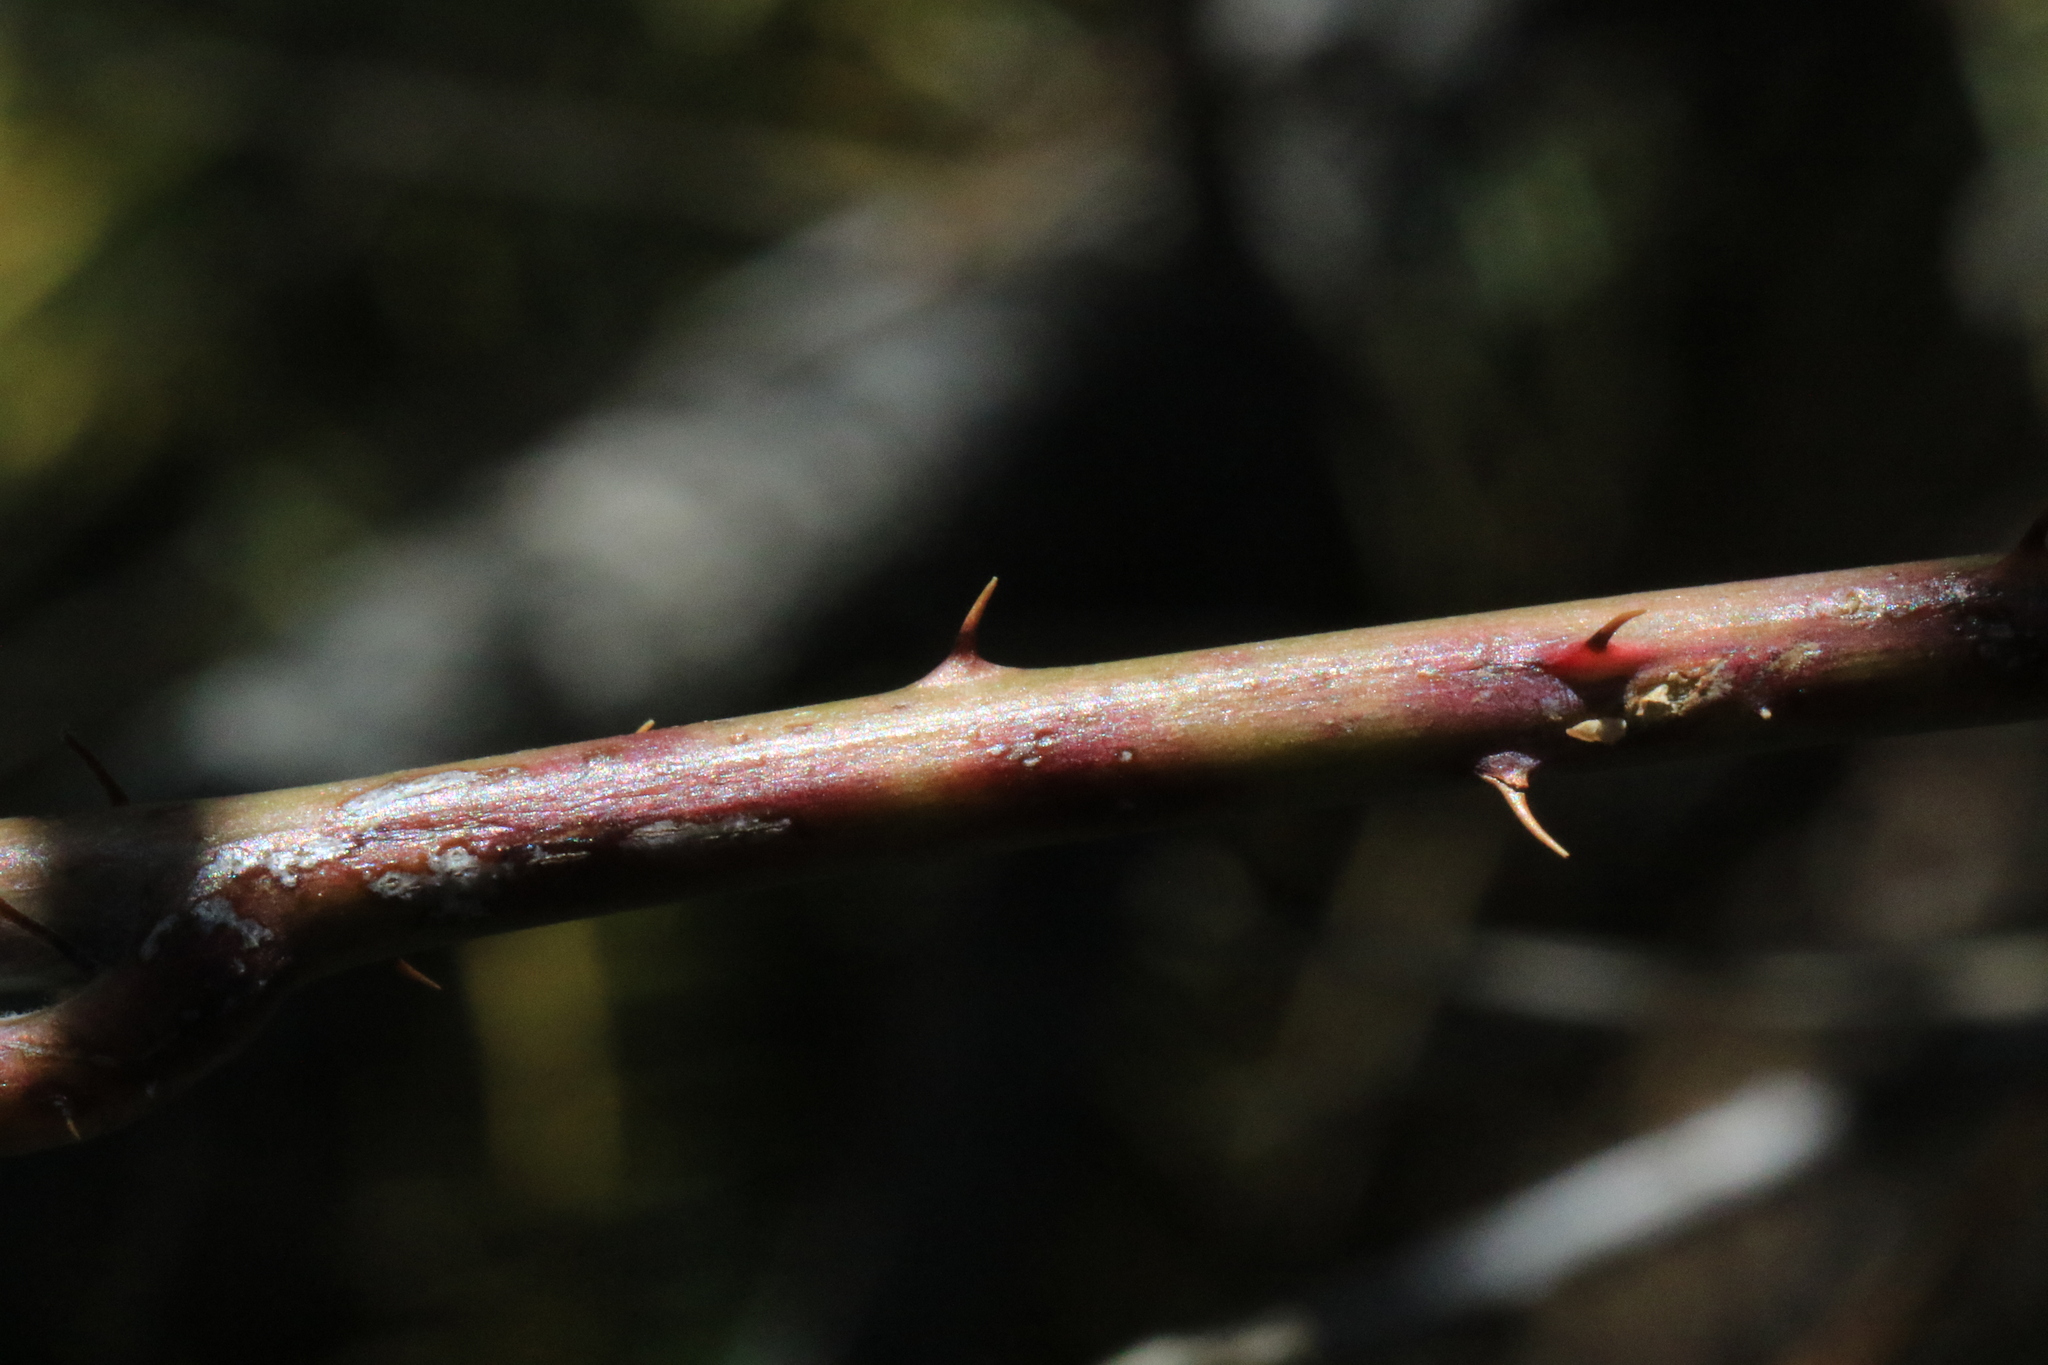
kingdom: Plantae
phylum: Tracheophyta
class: Magnoliopsida
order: Rosales
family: Rosaceae
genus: Rubus
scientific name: Rubus ursinus
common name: Pacific blackberry
